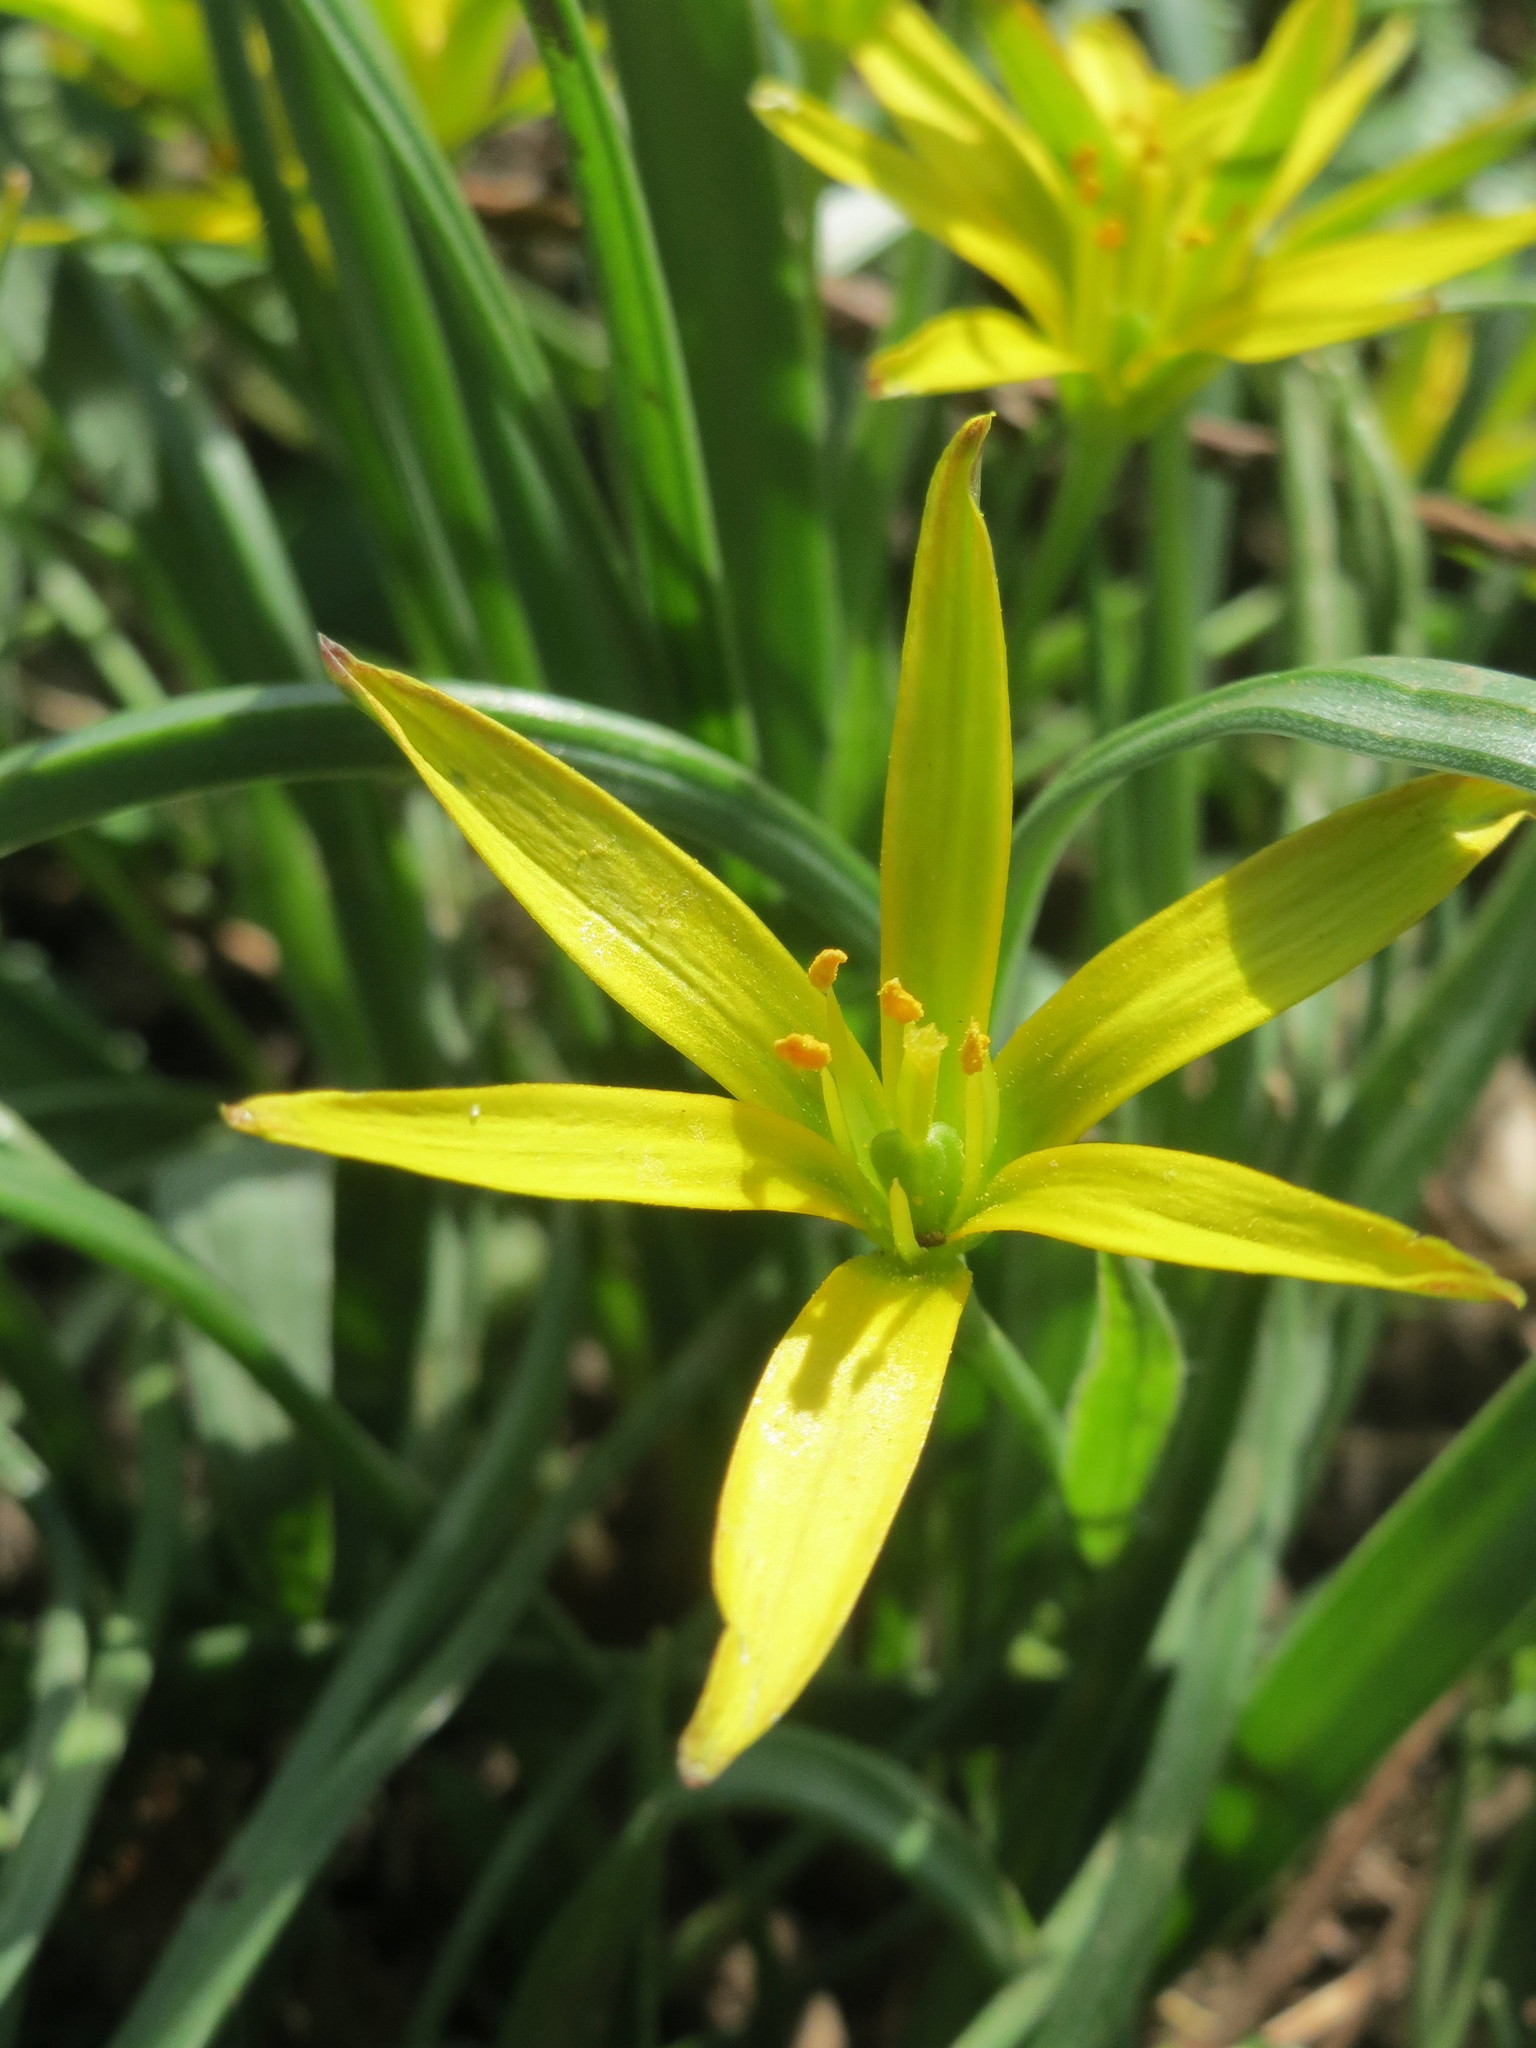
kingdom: Plantae
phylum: Tracheophyta
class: Liliopsida
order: Liliales
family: Liliaceae
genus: Gagea
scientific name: Gagea pratensis
